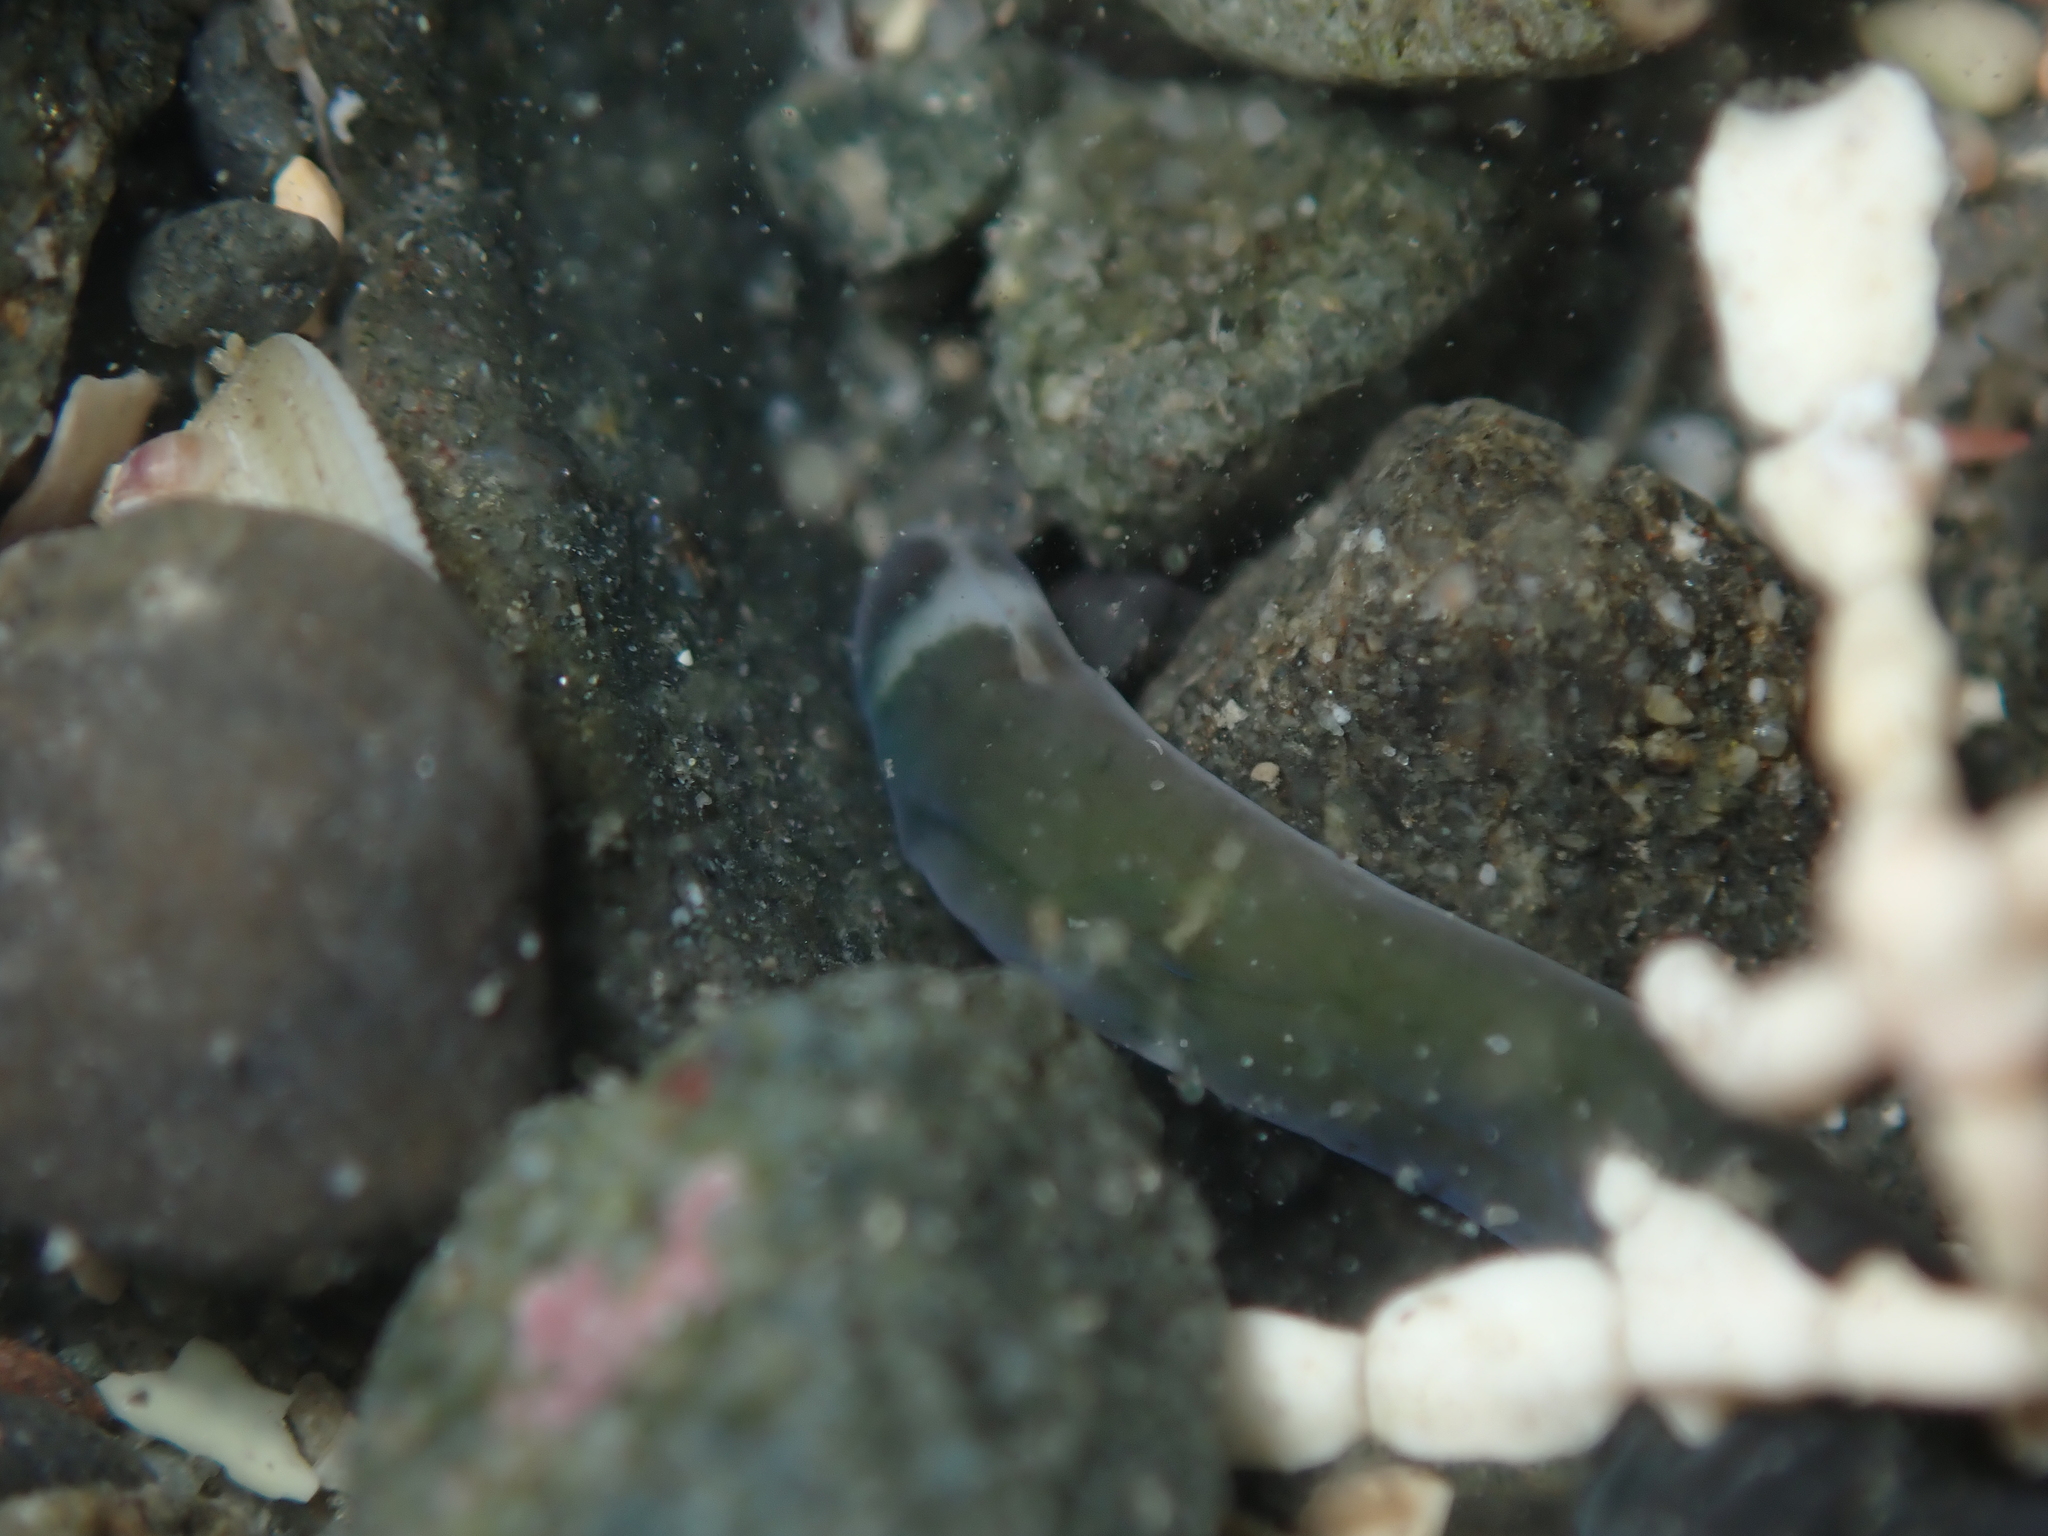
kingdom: Animalia
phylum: Nemertea
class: Pilidiophora
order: Heteronemertea
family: Lineidae
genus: Notospermus
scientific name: Notospermus geniculatus
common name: Banded bootlace
